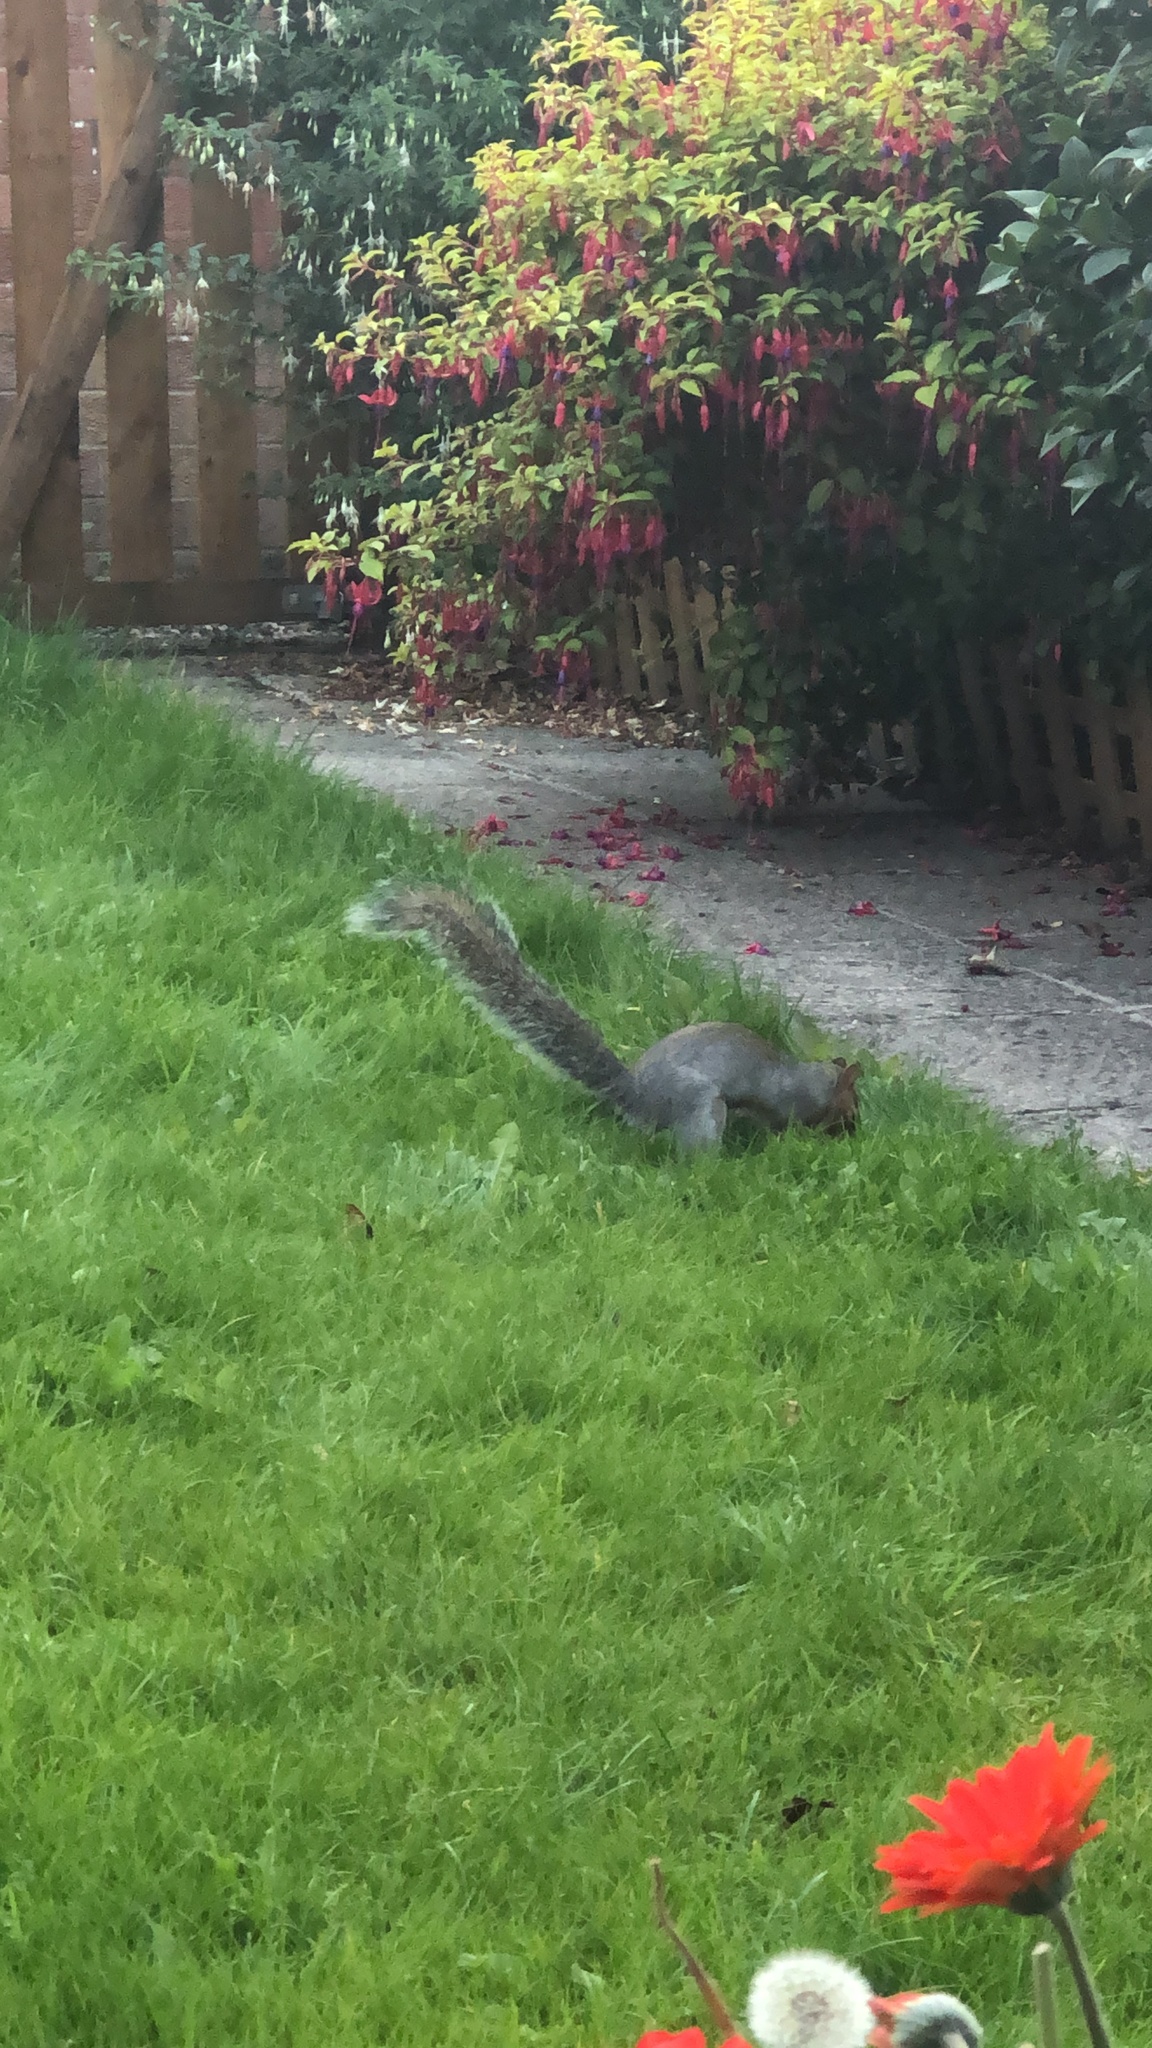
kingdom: Animalia
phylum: Chordata
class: Mammalia
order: Rodentia
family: Sciuridae
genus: Sciurus
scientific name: Sciurus carolinensis
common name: Eastern gray squirrel
